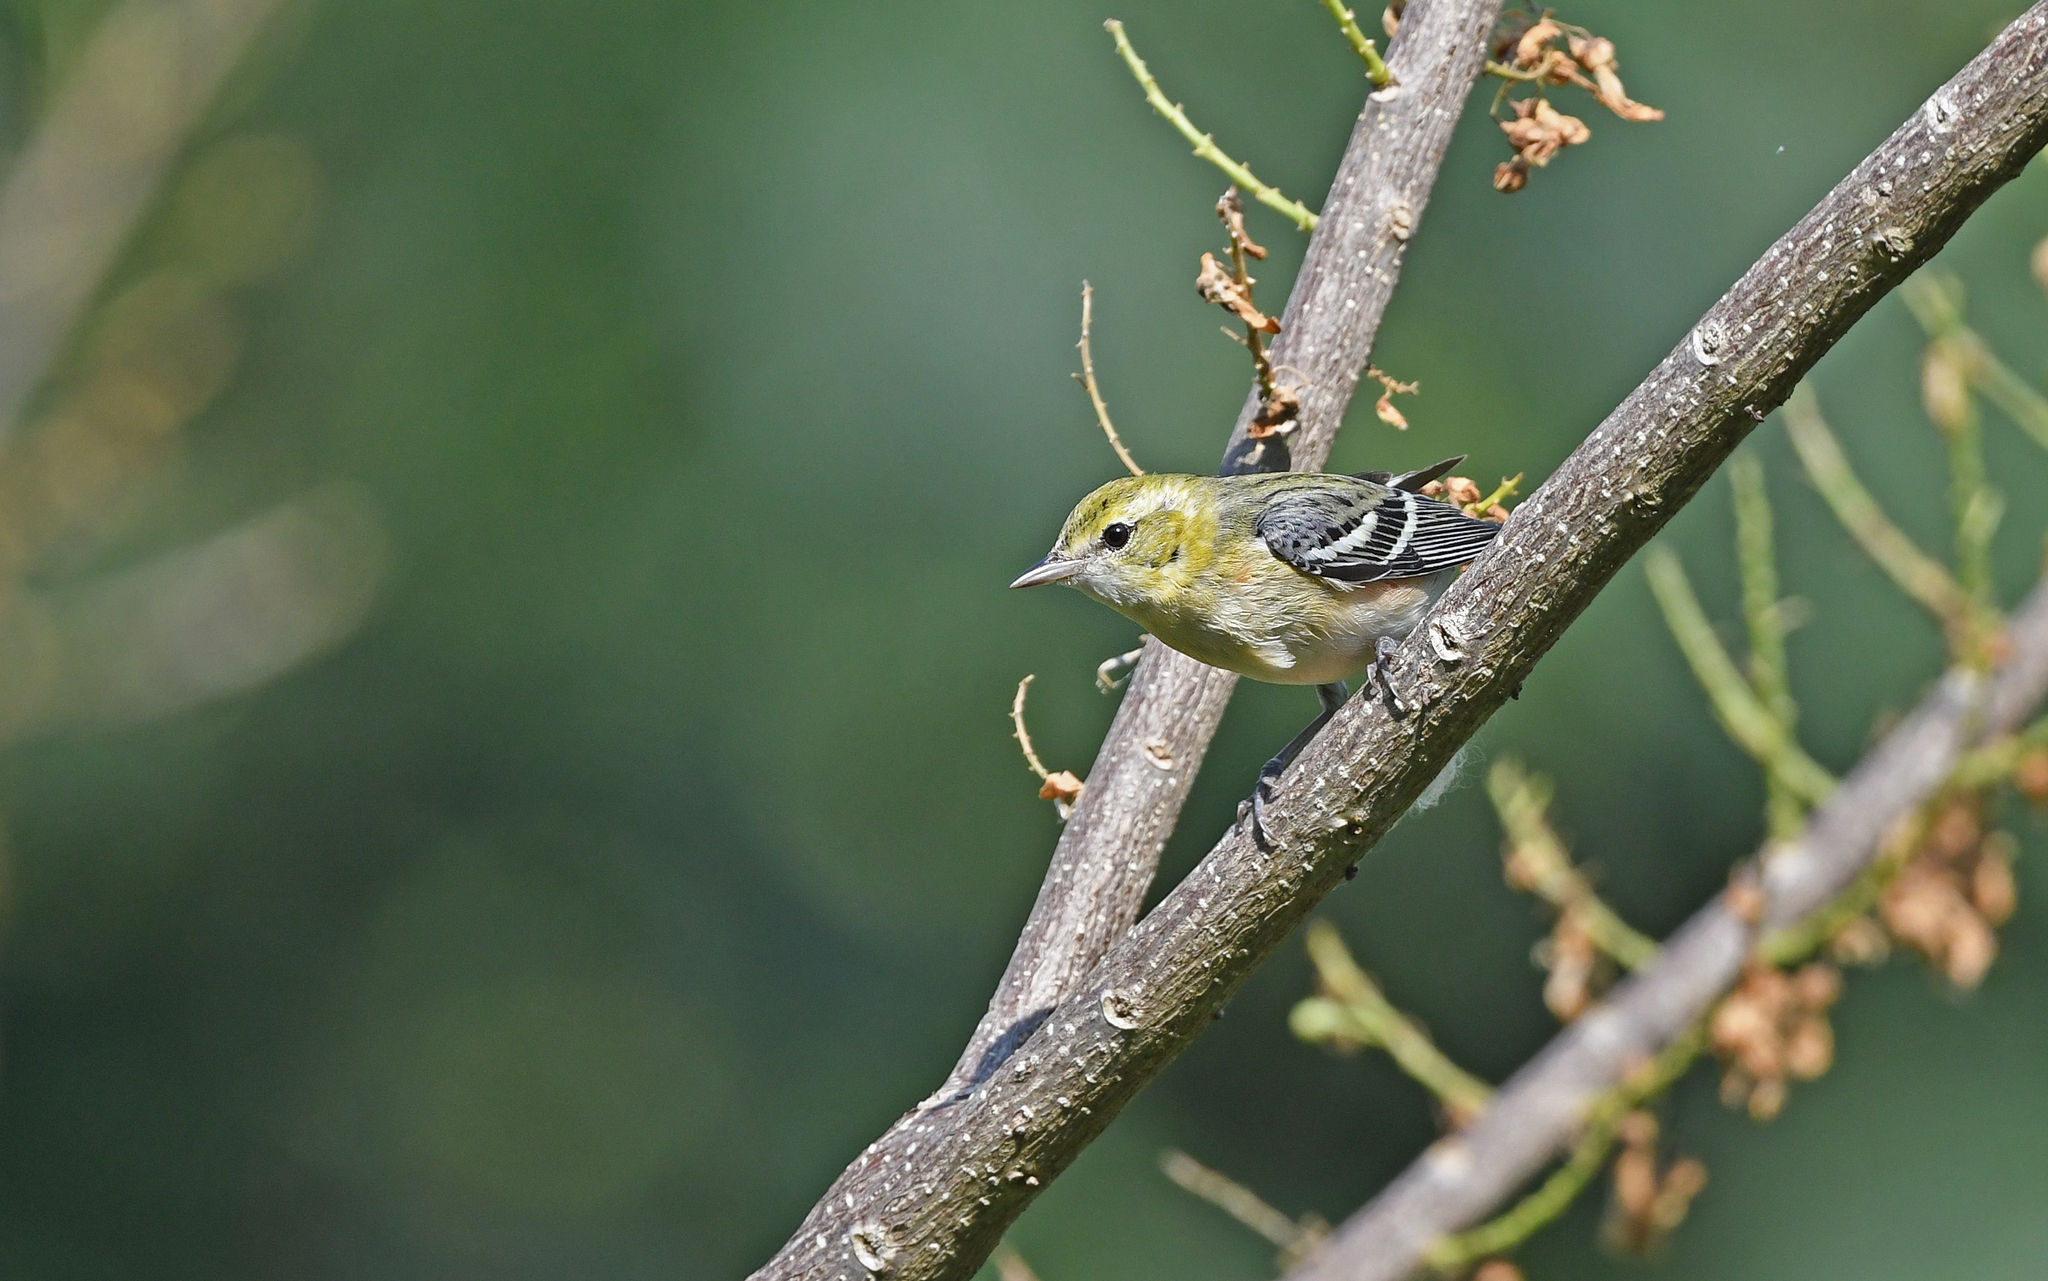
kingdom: Animalia
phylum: Chordata
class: Aves
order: Passeriformes
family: Parulidae
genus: Setophaga
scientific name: Setophaga castanea
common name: Bay-breasted warbler
